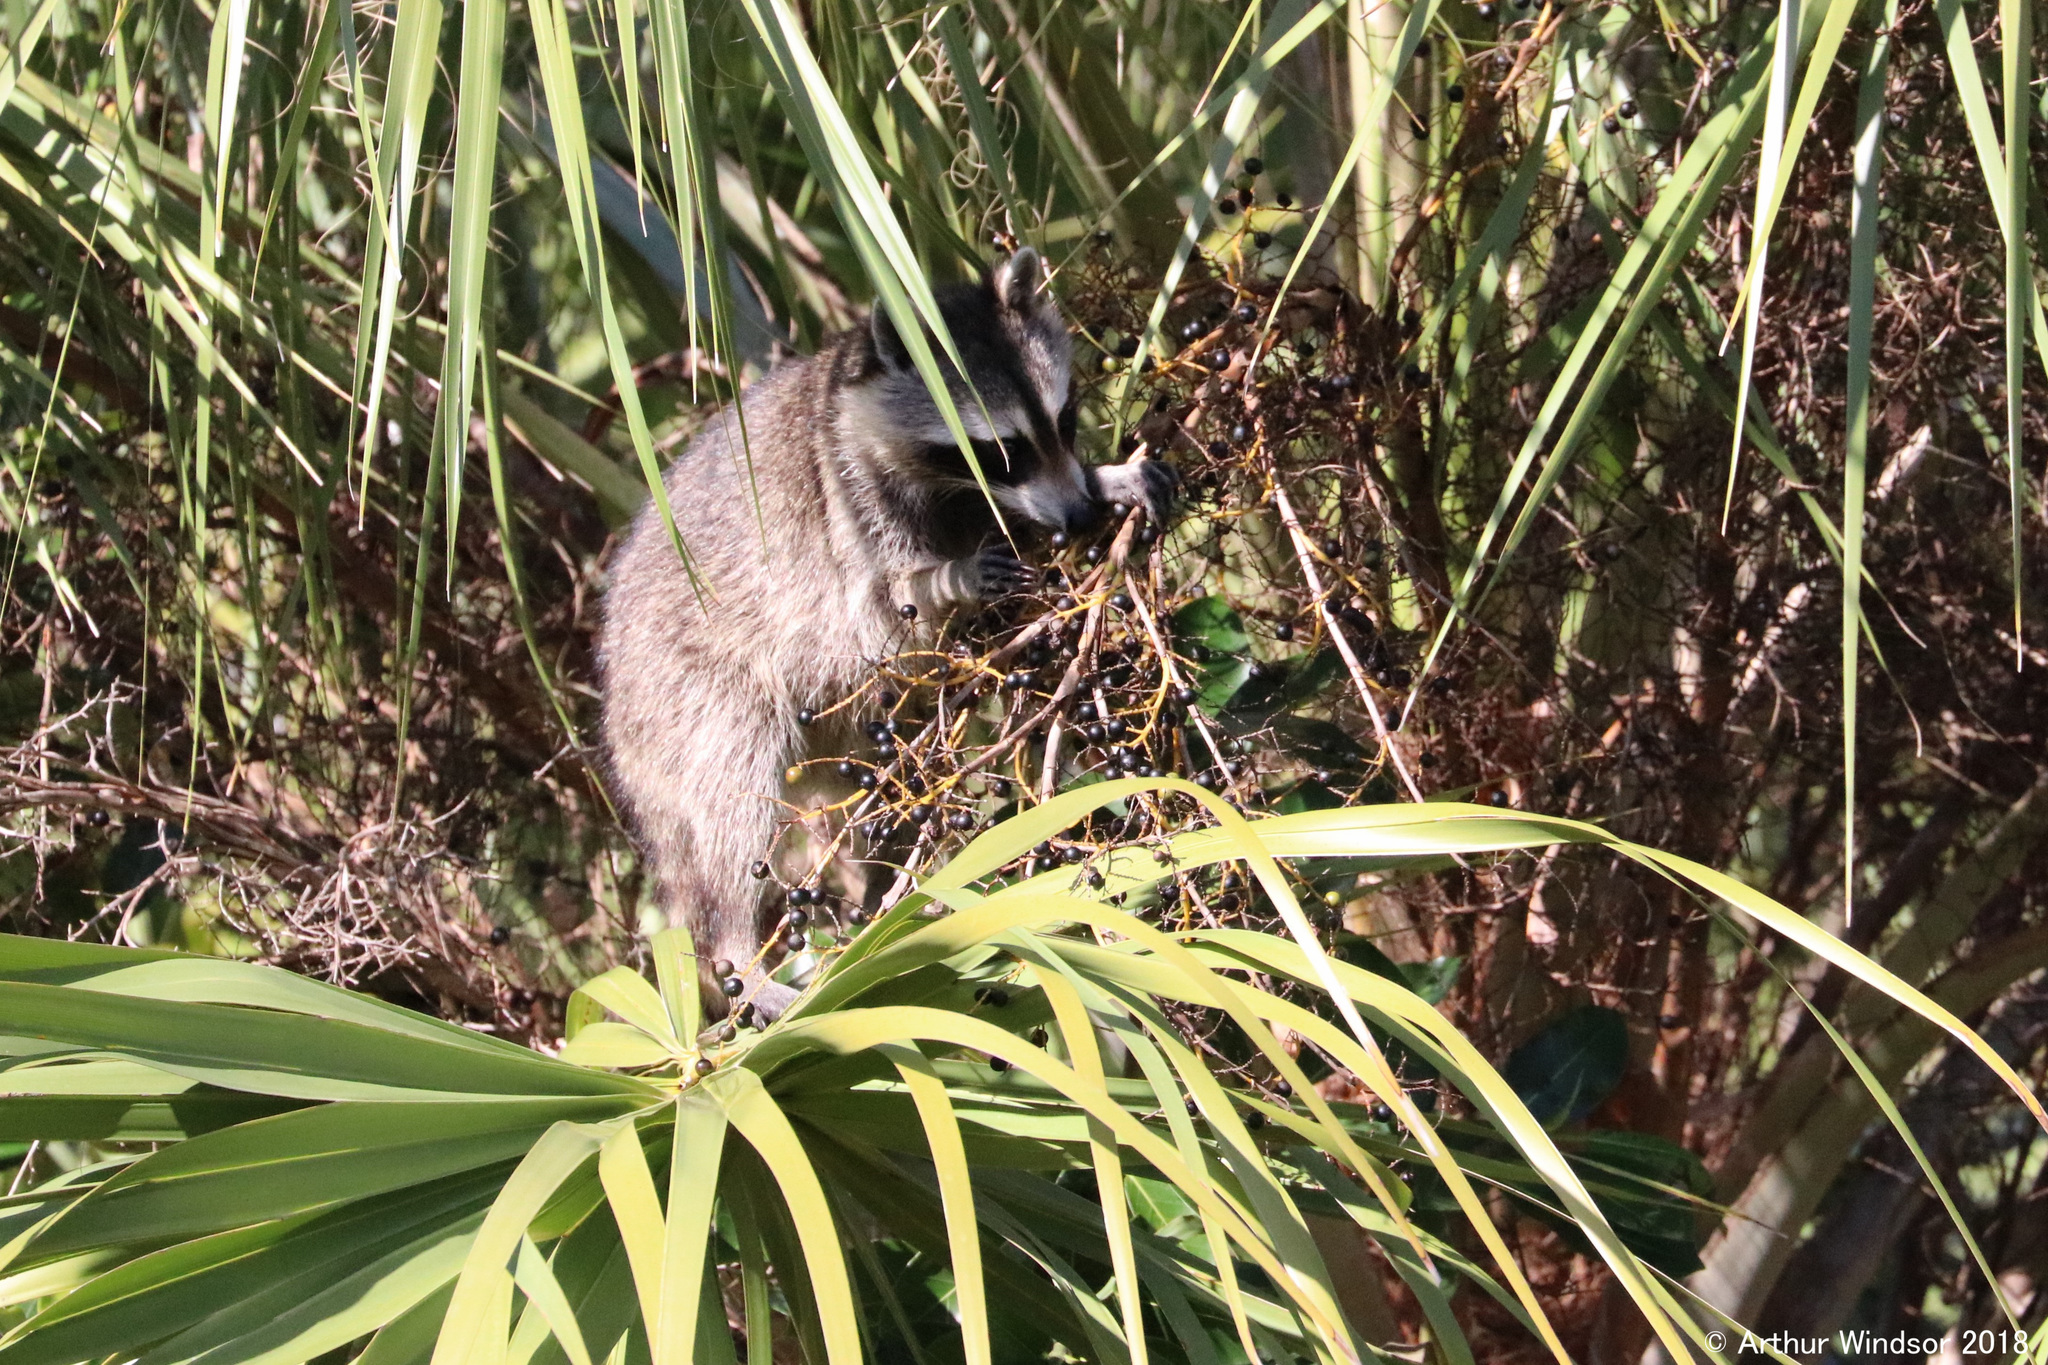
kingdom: Animalia
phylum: Chordata
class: Mammalia
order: Carnivora
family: Procyonidae
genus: Procyon
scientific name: Procyon lotor
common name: Raccoon
